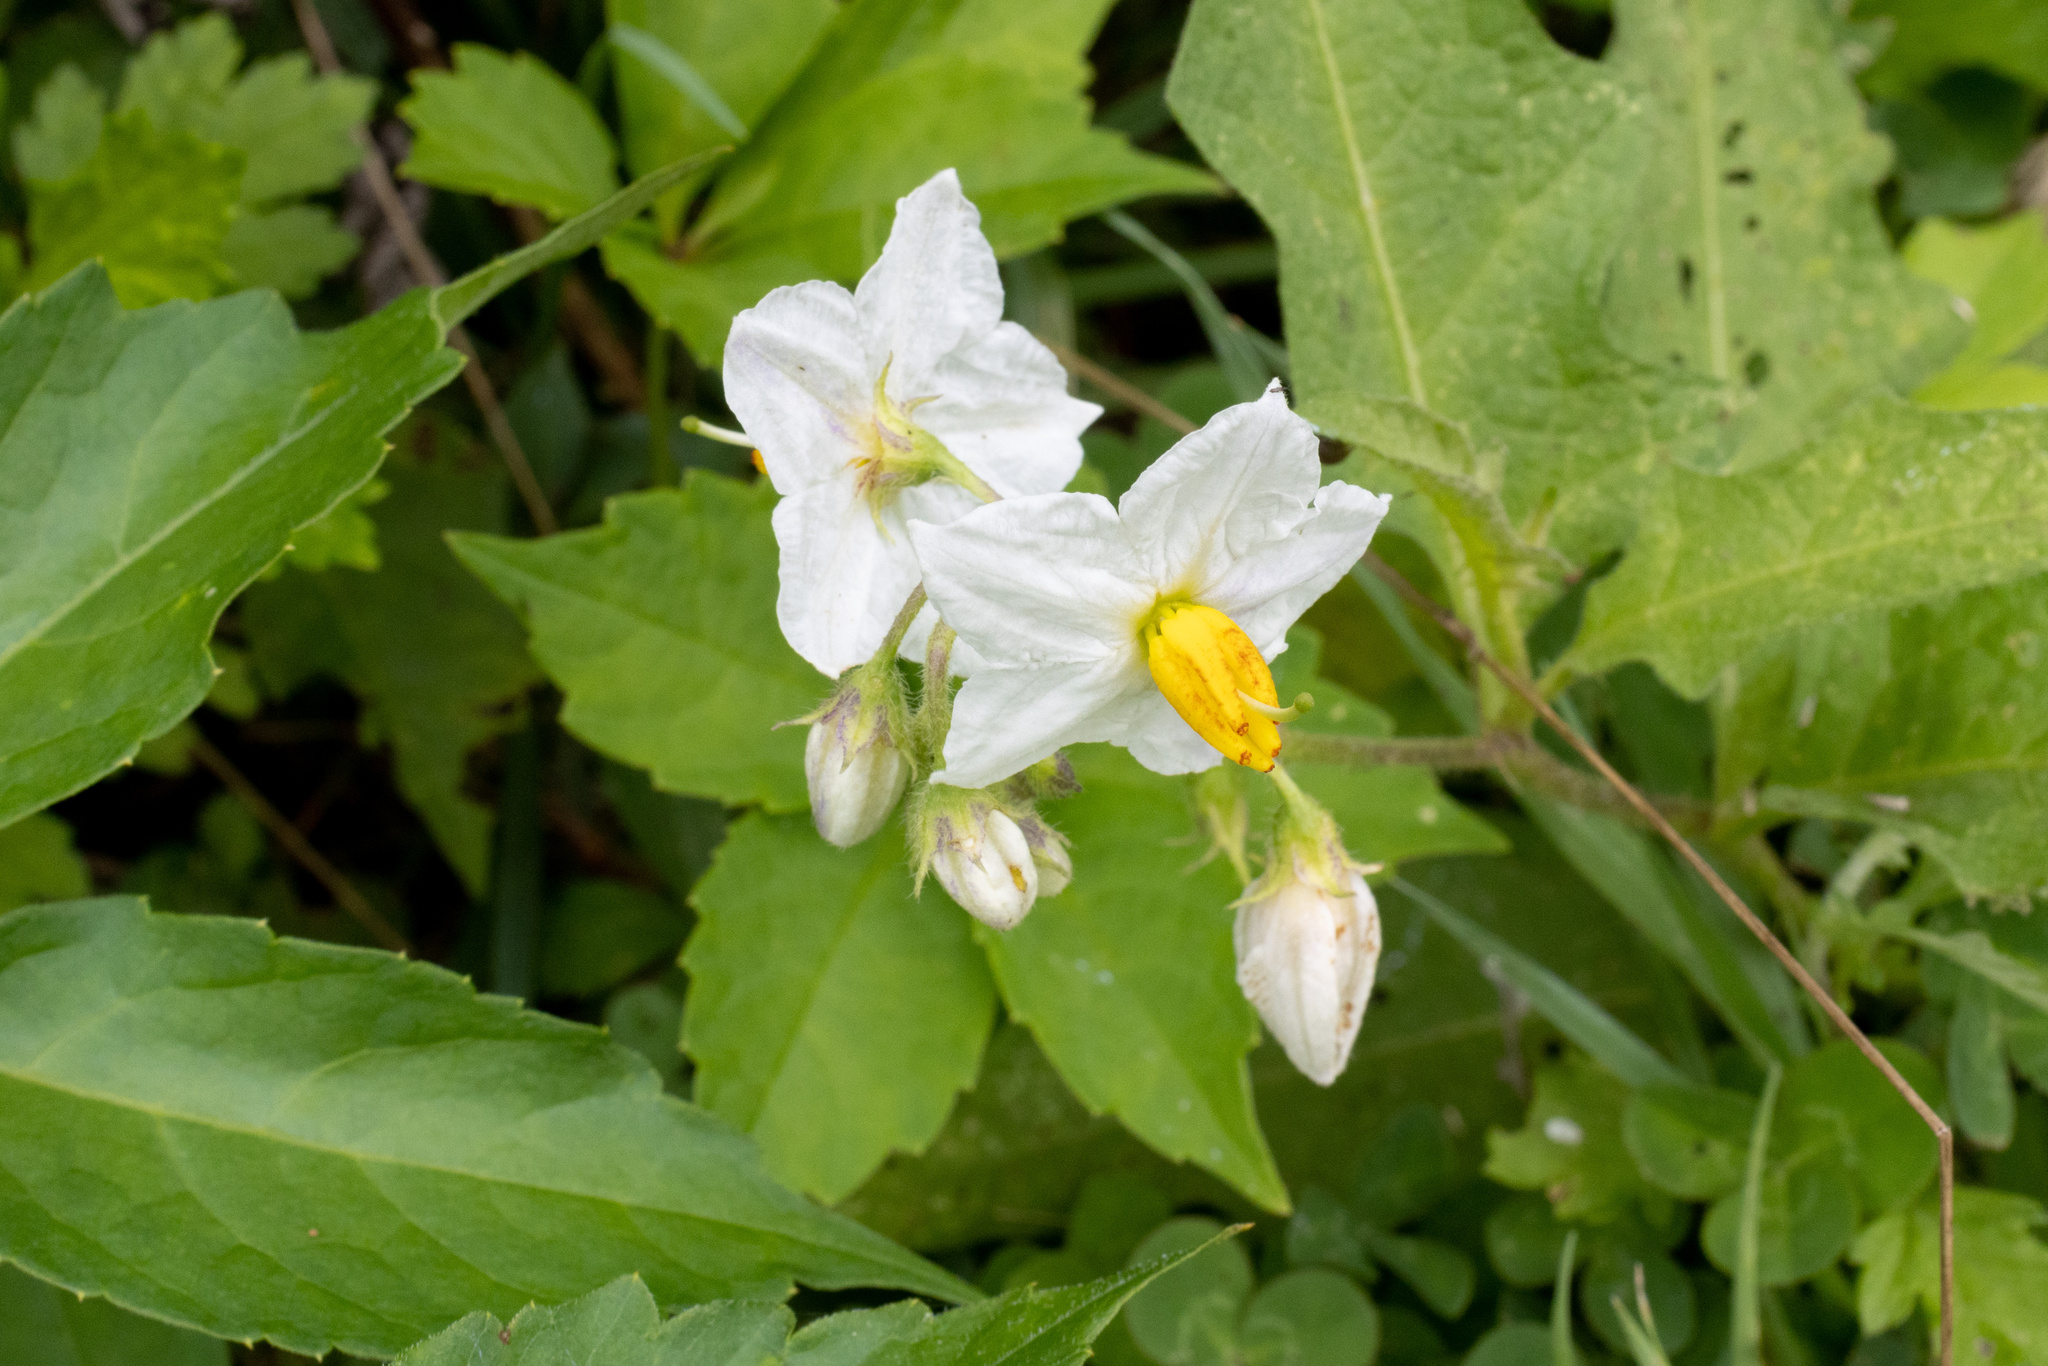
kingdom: Plantae
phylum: Tracheophyta
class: Magnoliopsida
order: Solanales
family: Solanaceae
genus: Solanum
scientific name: Solanum carolinense
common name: Horse-nettle
